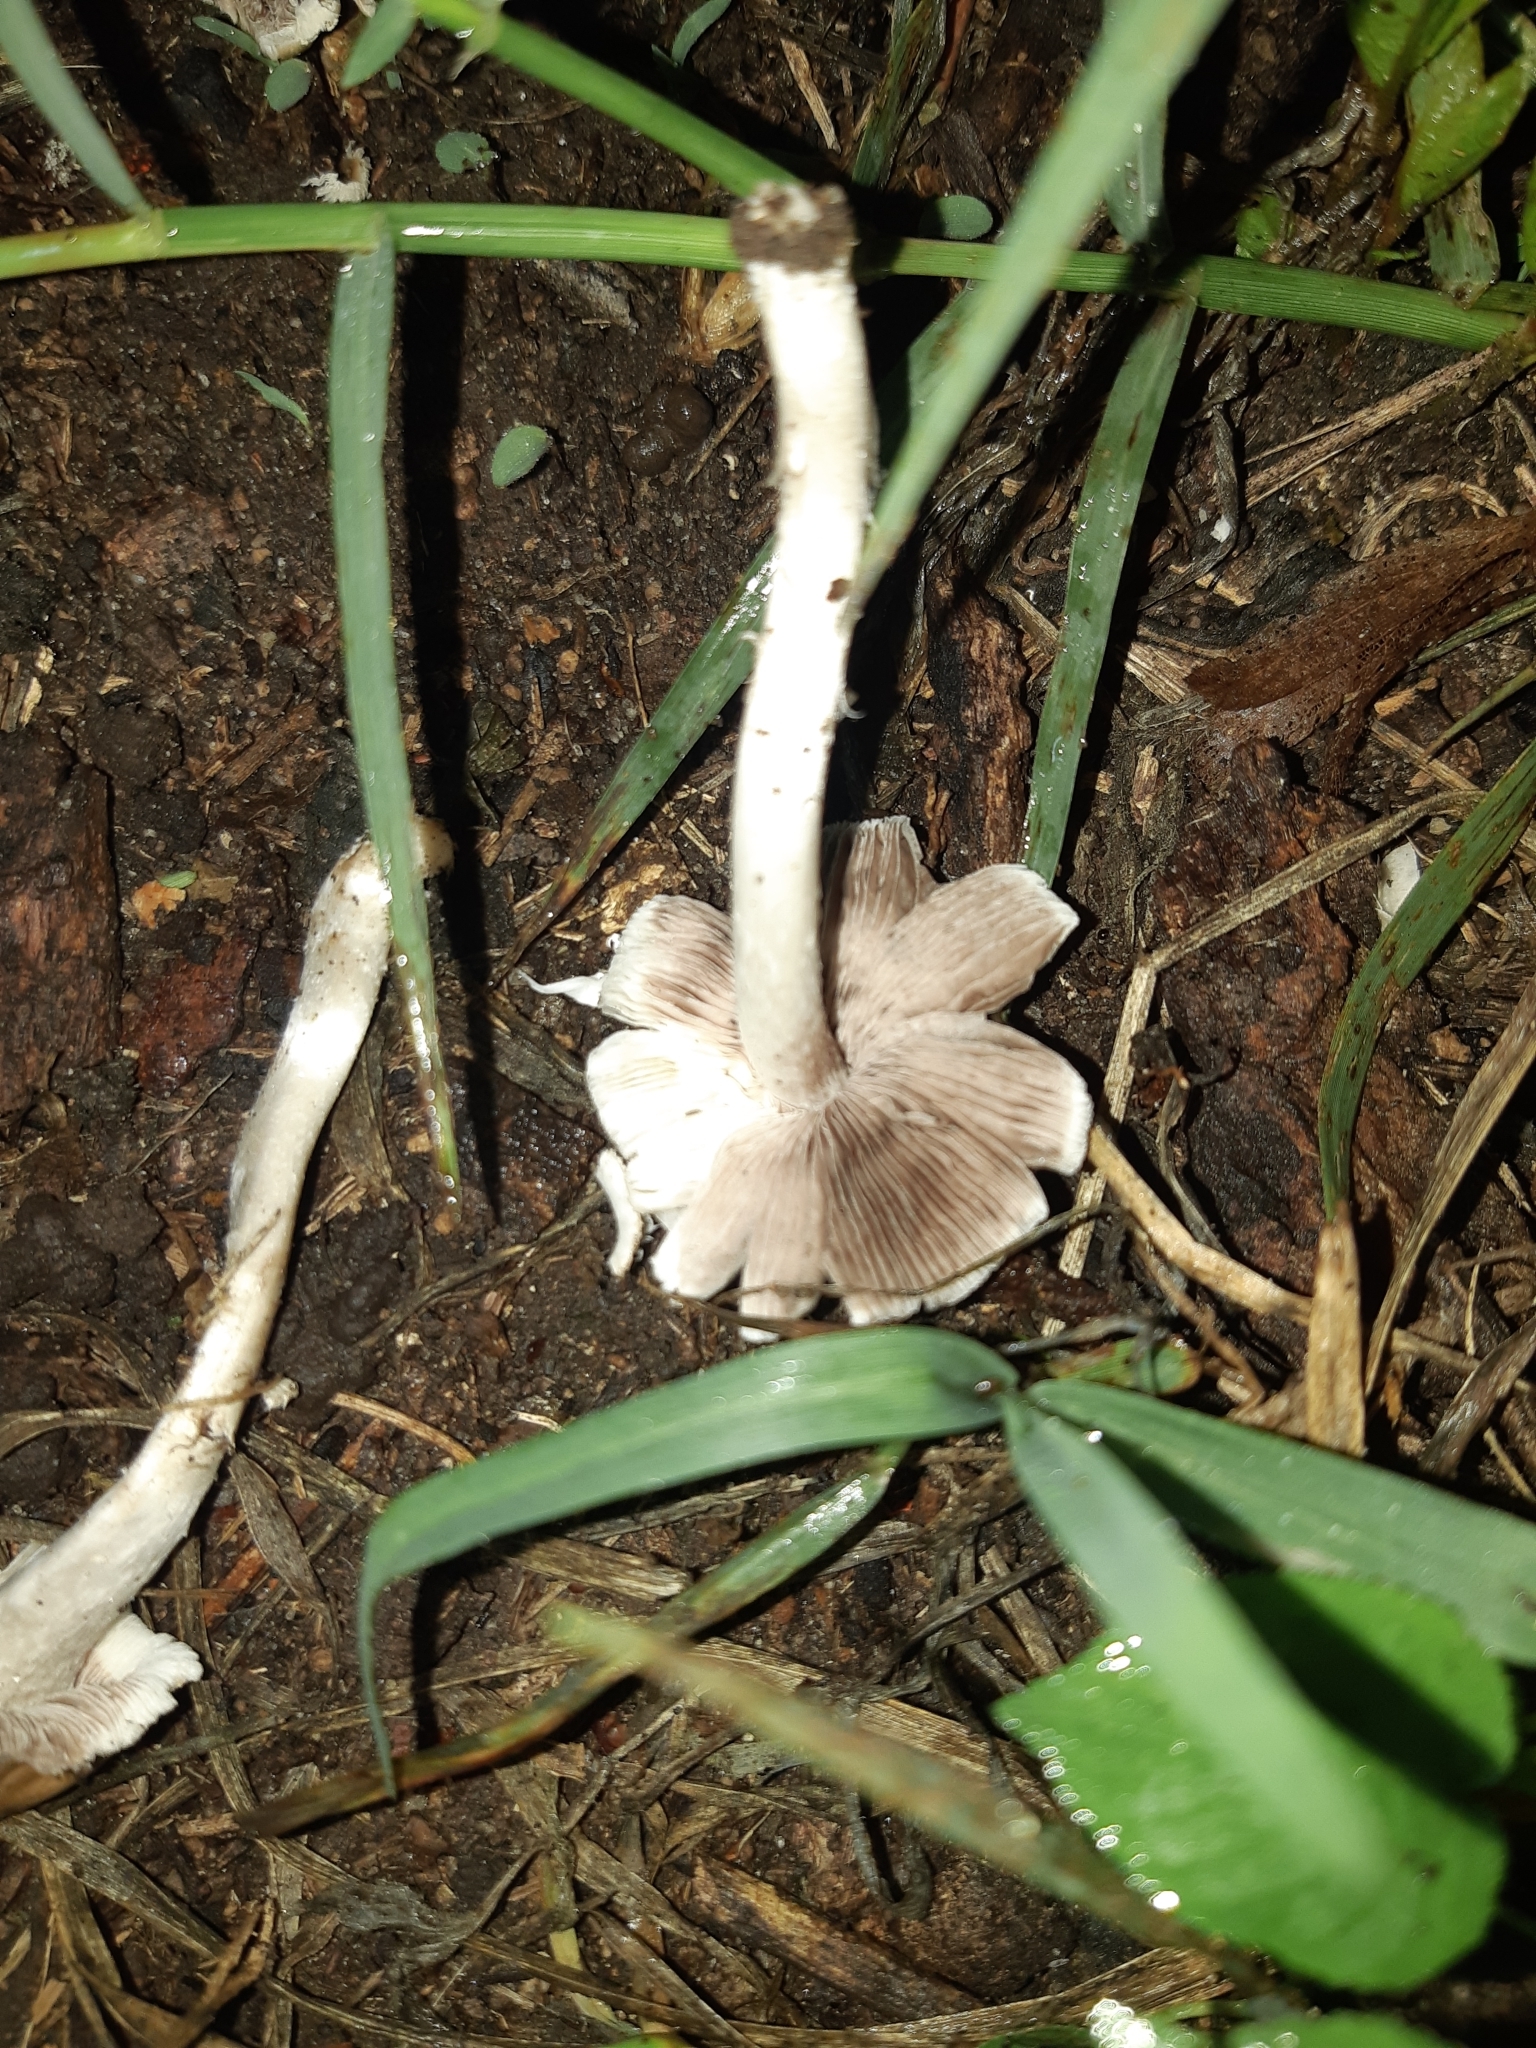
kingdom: Fungi
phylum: Basidiomycota
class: Agaricomycetes
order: Agaricales
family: Psathyrellaceae
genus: Candolleomyces
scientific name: Candolleomyces candolleanus
